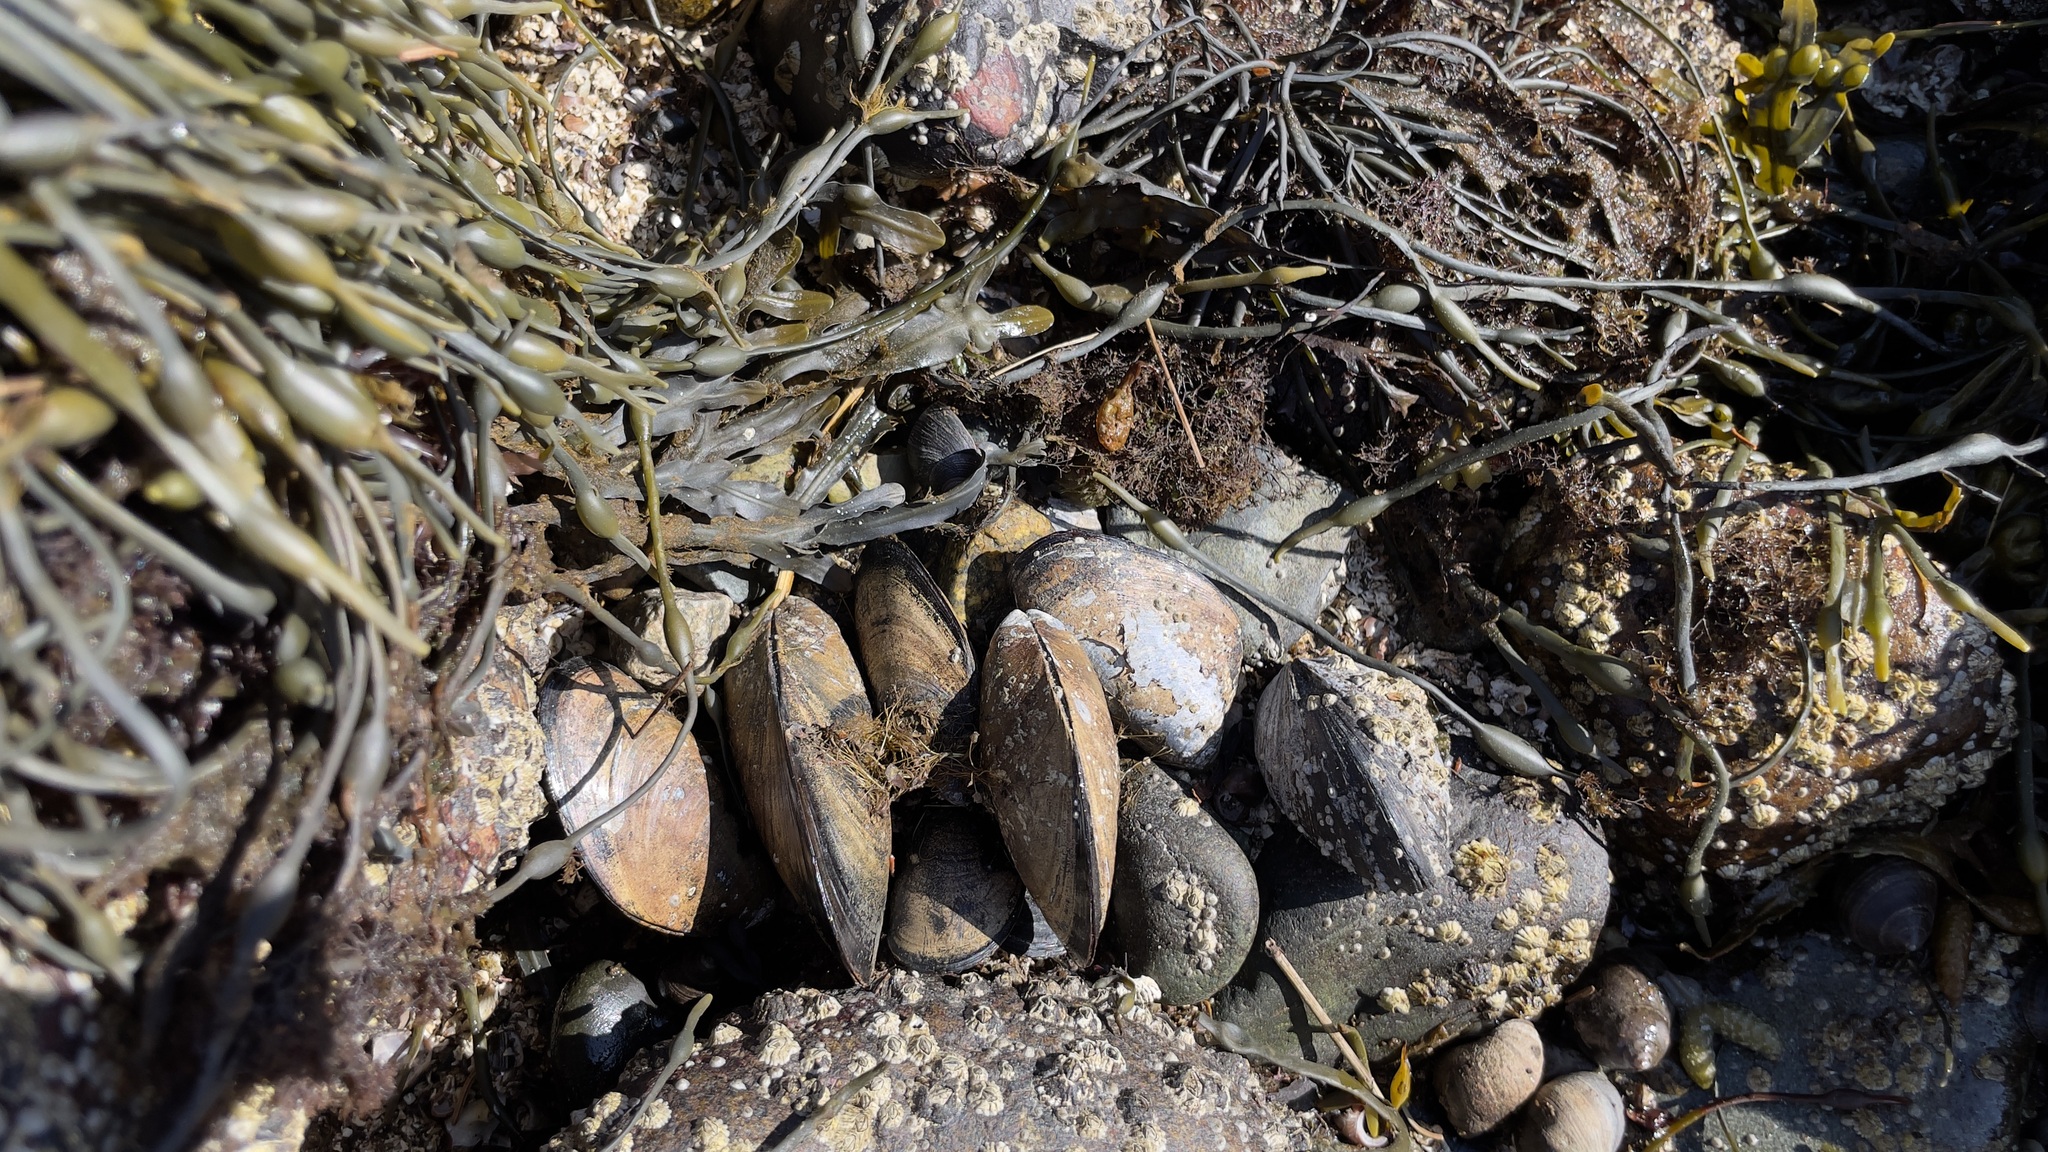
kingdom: Animalia
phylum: Mollusca
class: Bivalvia
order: Mytilida
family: Mytilidae
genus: Mytilus
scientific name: Mytilus edulis
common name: Blue mussel
